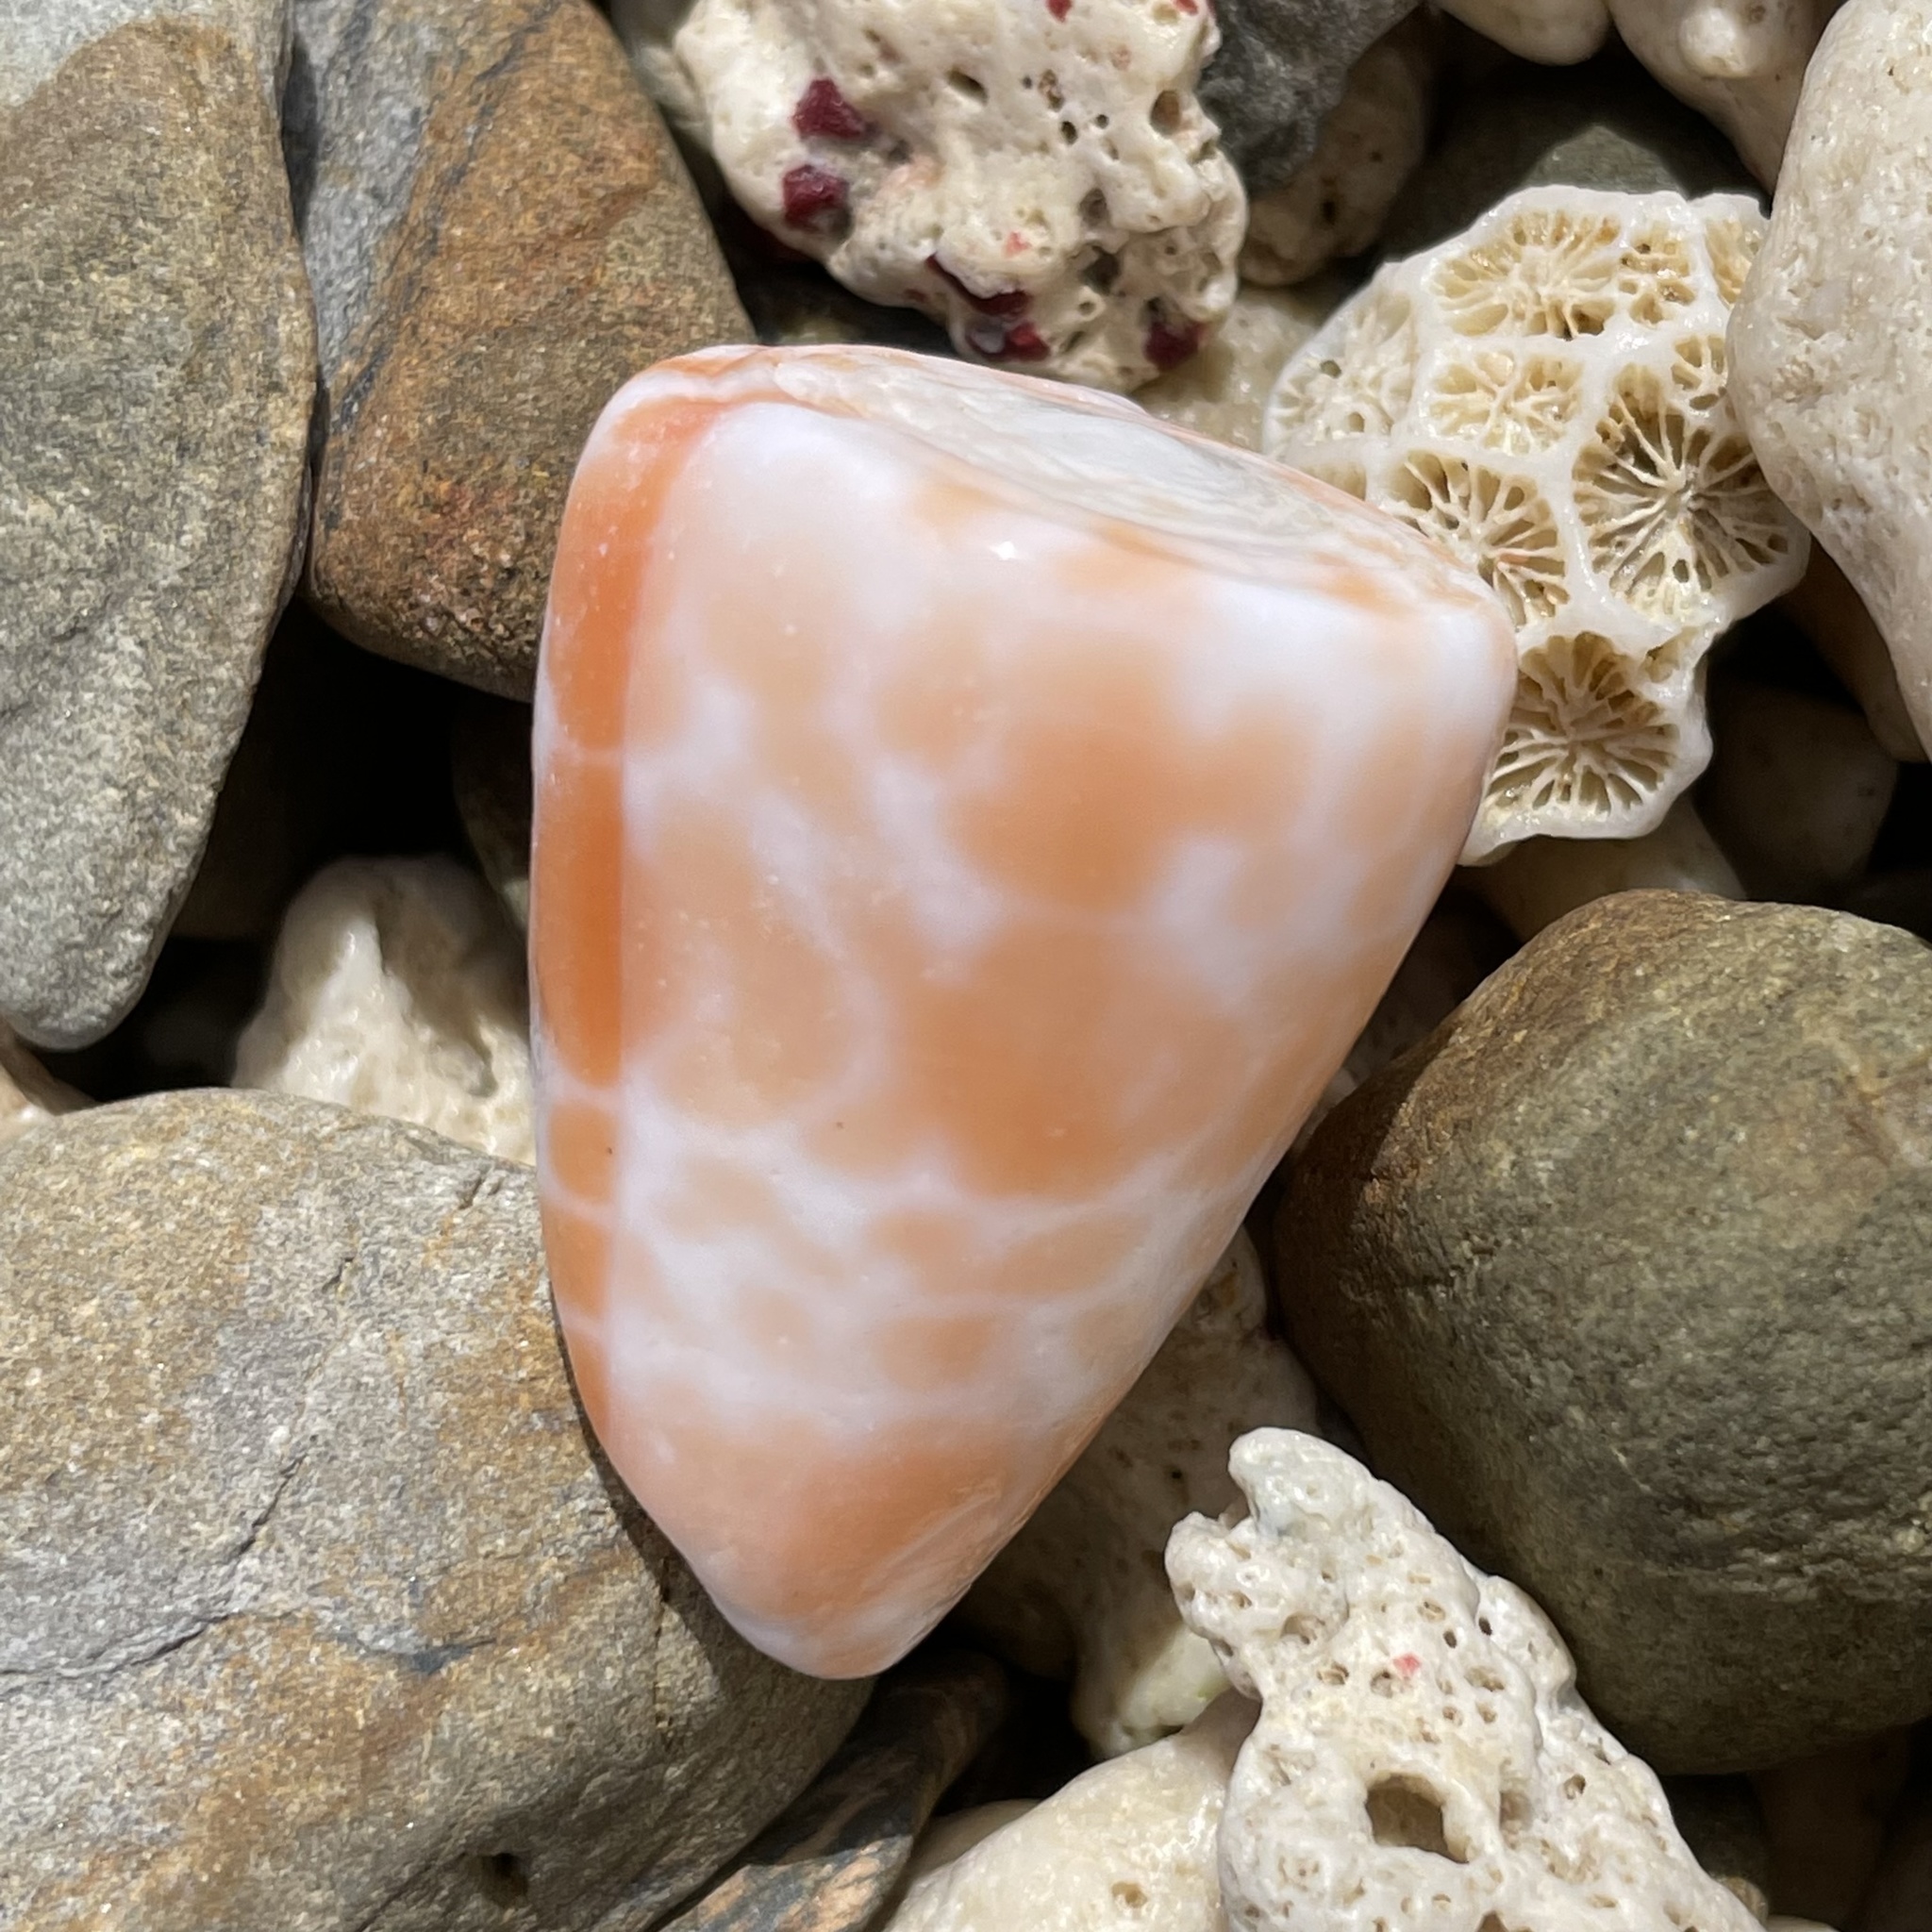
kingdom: Animalia
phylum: Mollusca
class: Gastropoda
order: Neogastropoda
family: Conidae
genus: Conus
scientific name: Conus tessulatus
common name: Tessellate cone
